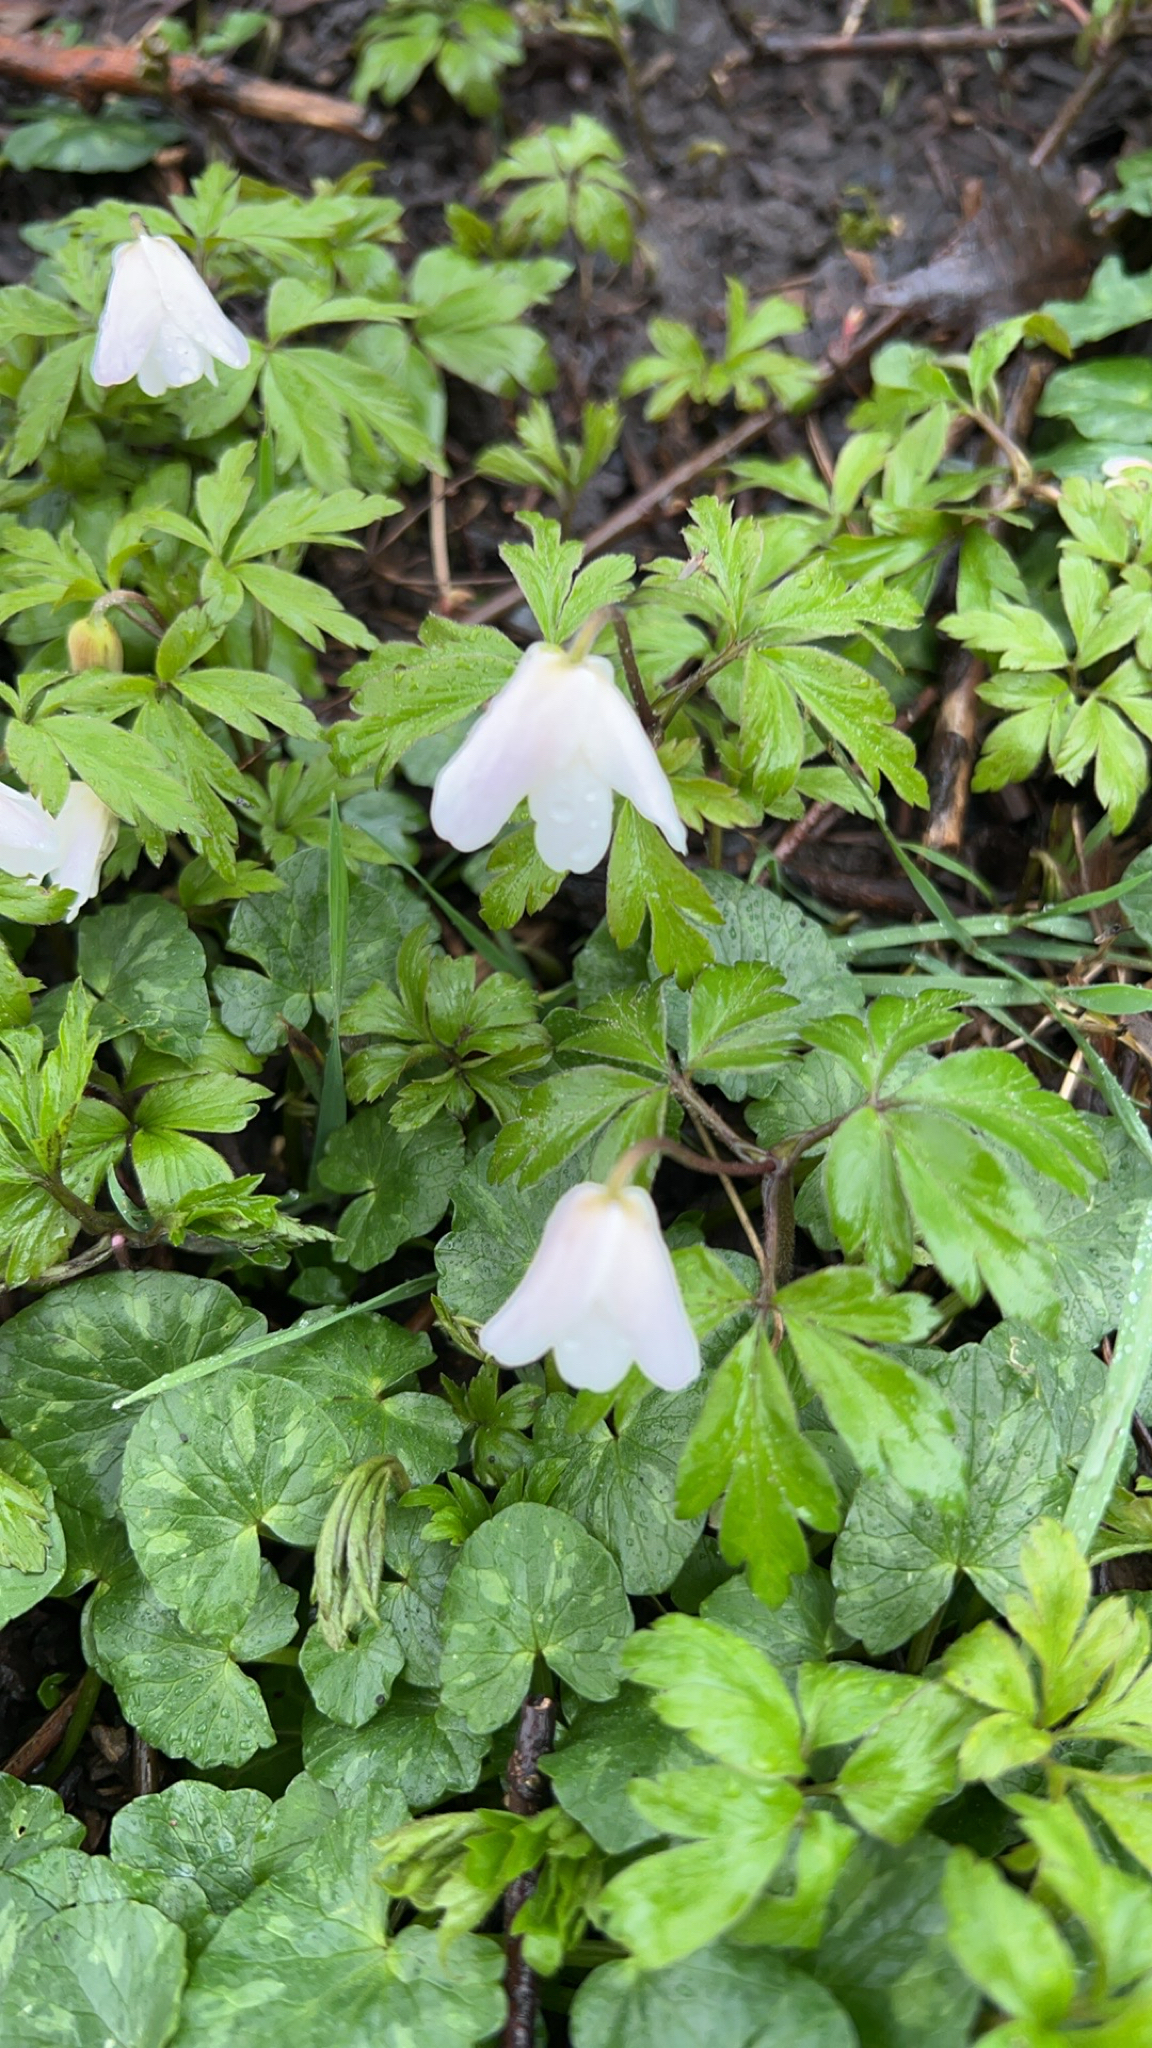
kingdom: Plantae
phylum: Tracheophyta
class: Magnoliopsida
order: Ranunculales
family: Ranunculaceae
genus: Anemone
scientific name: Anemone nemorosa
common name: Wood anemone
